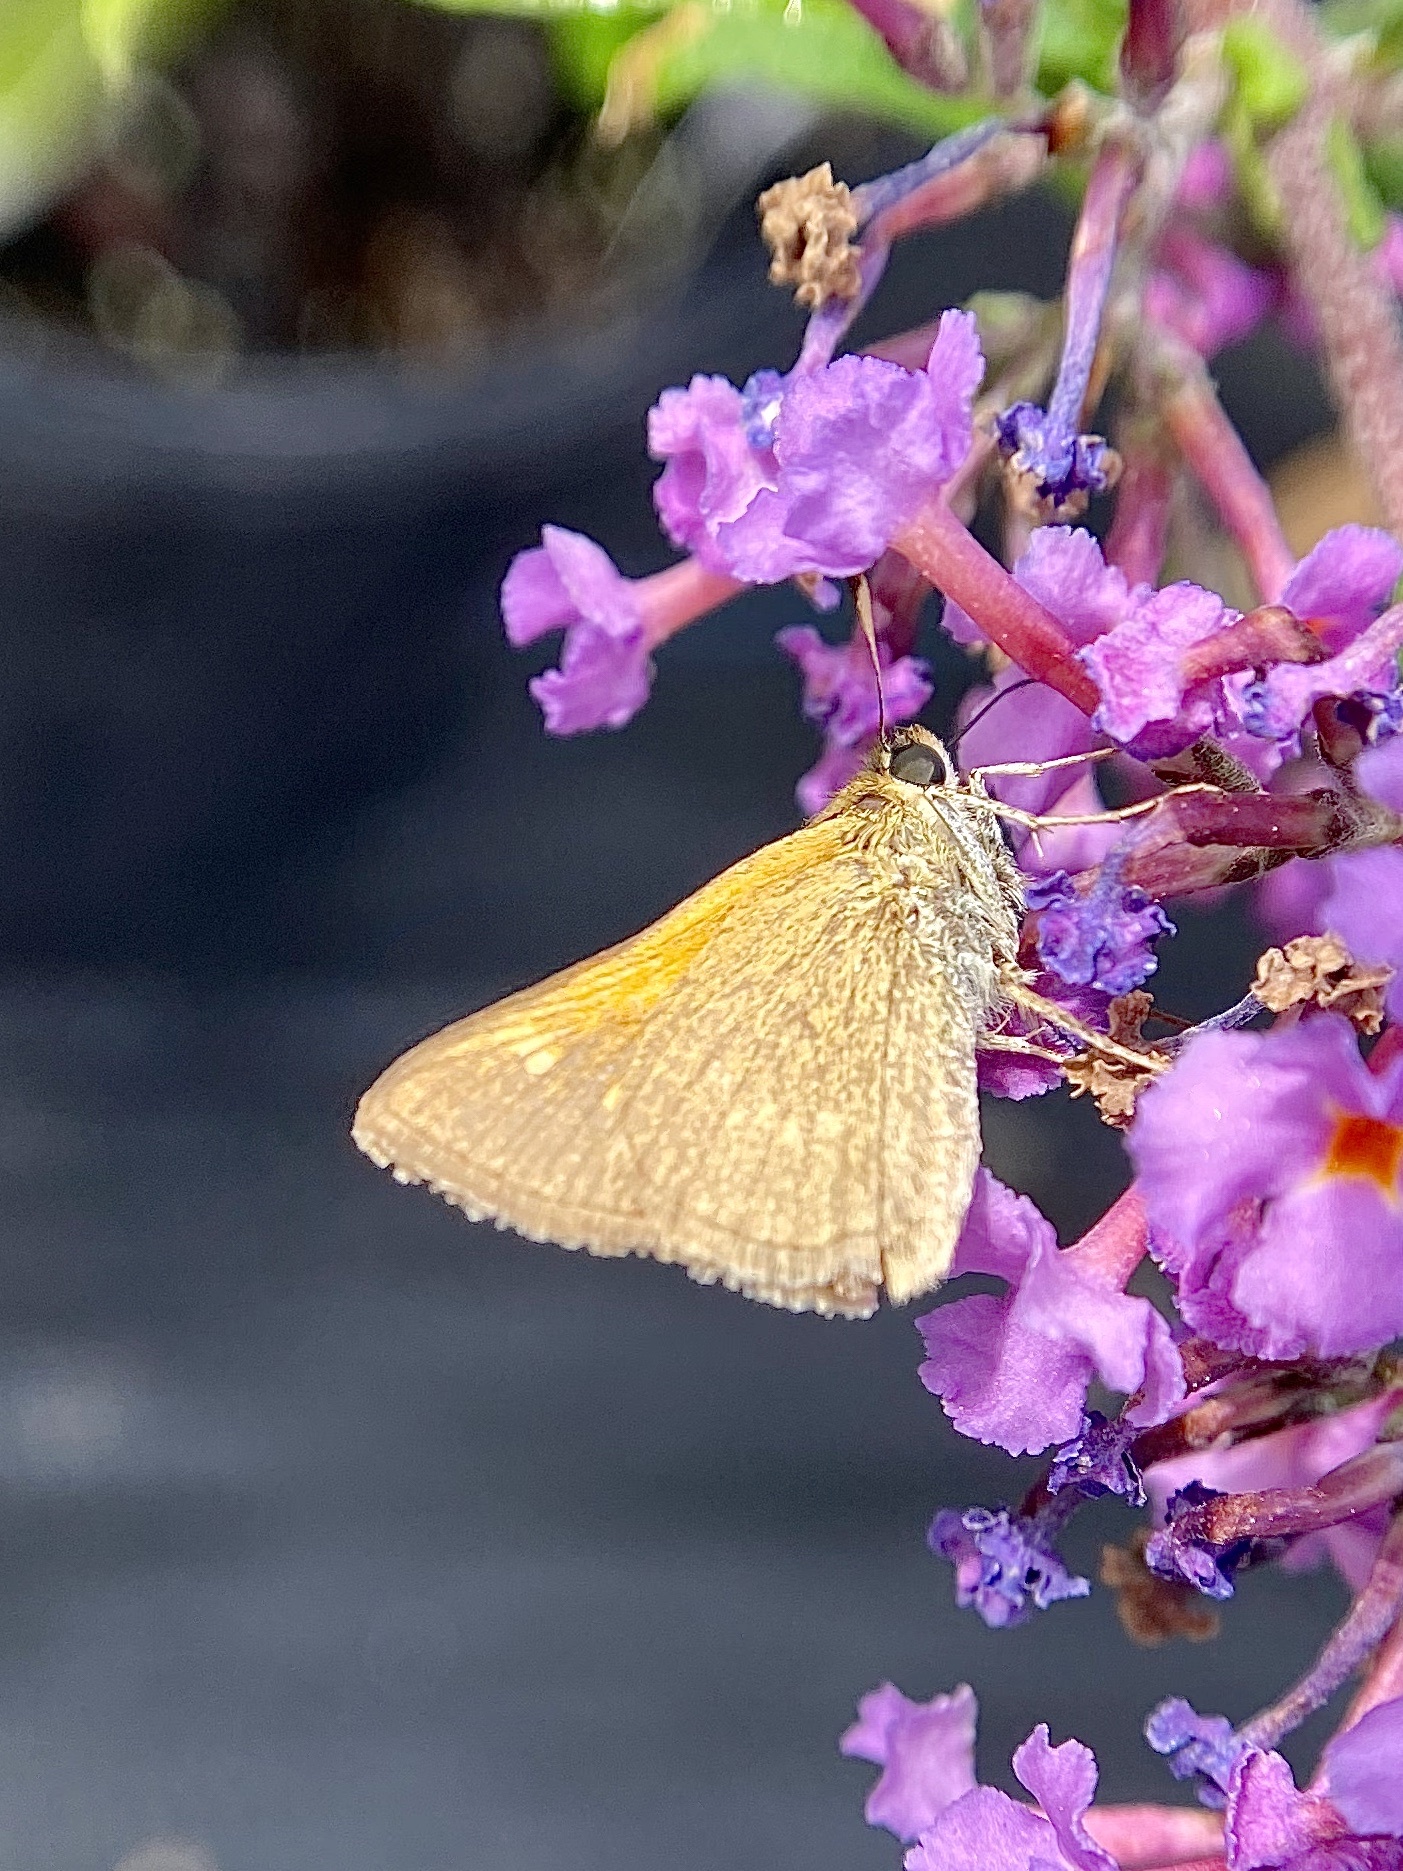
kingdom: Animalia
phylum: Arthropoda
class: Insecta
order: Lepidoptera
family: Hesperiidae
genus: Polites
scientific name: Polites themistocles
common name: Tawny-edged skipper
